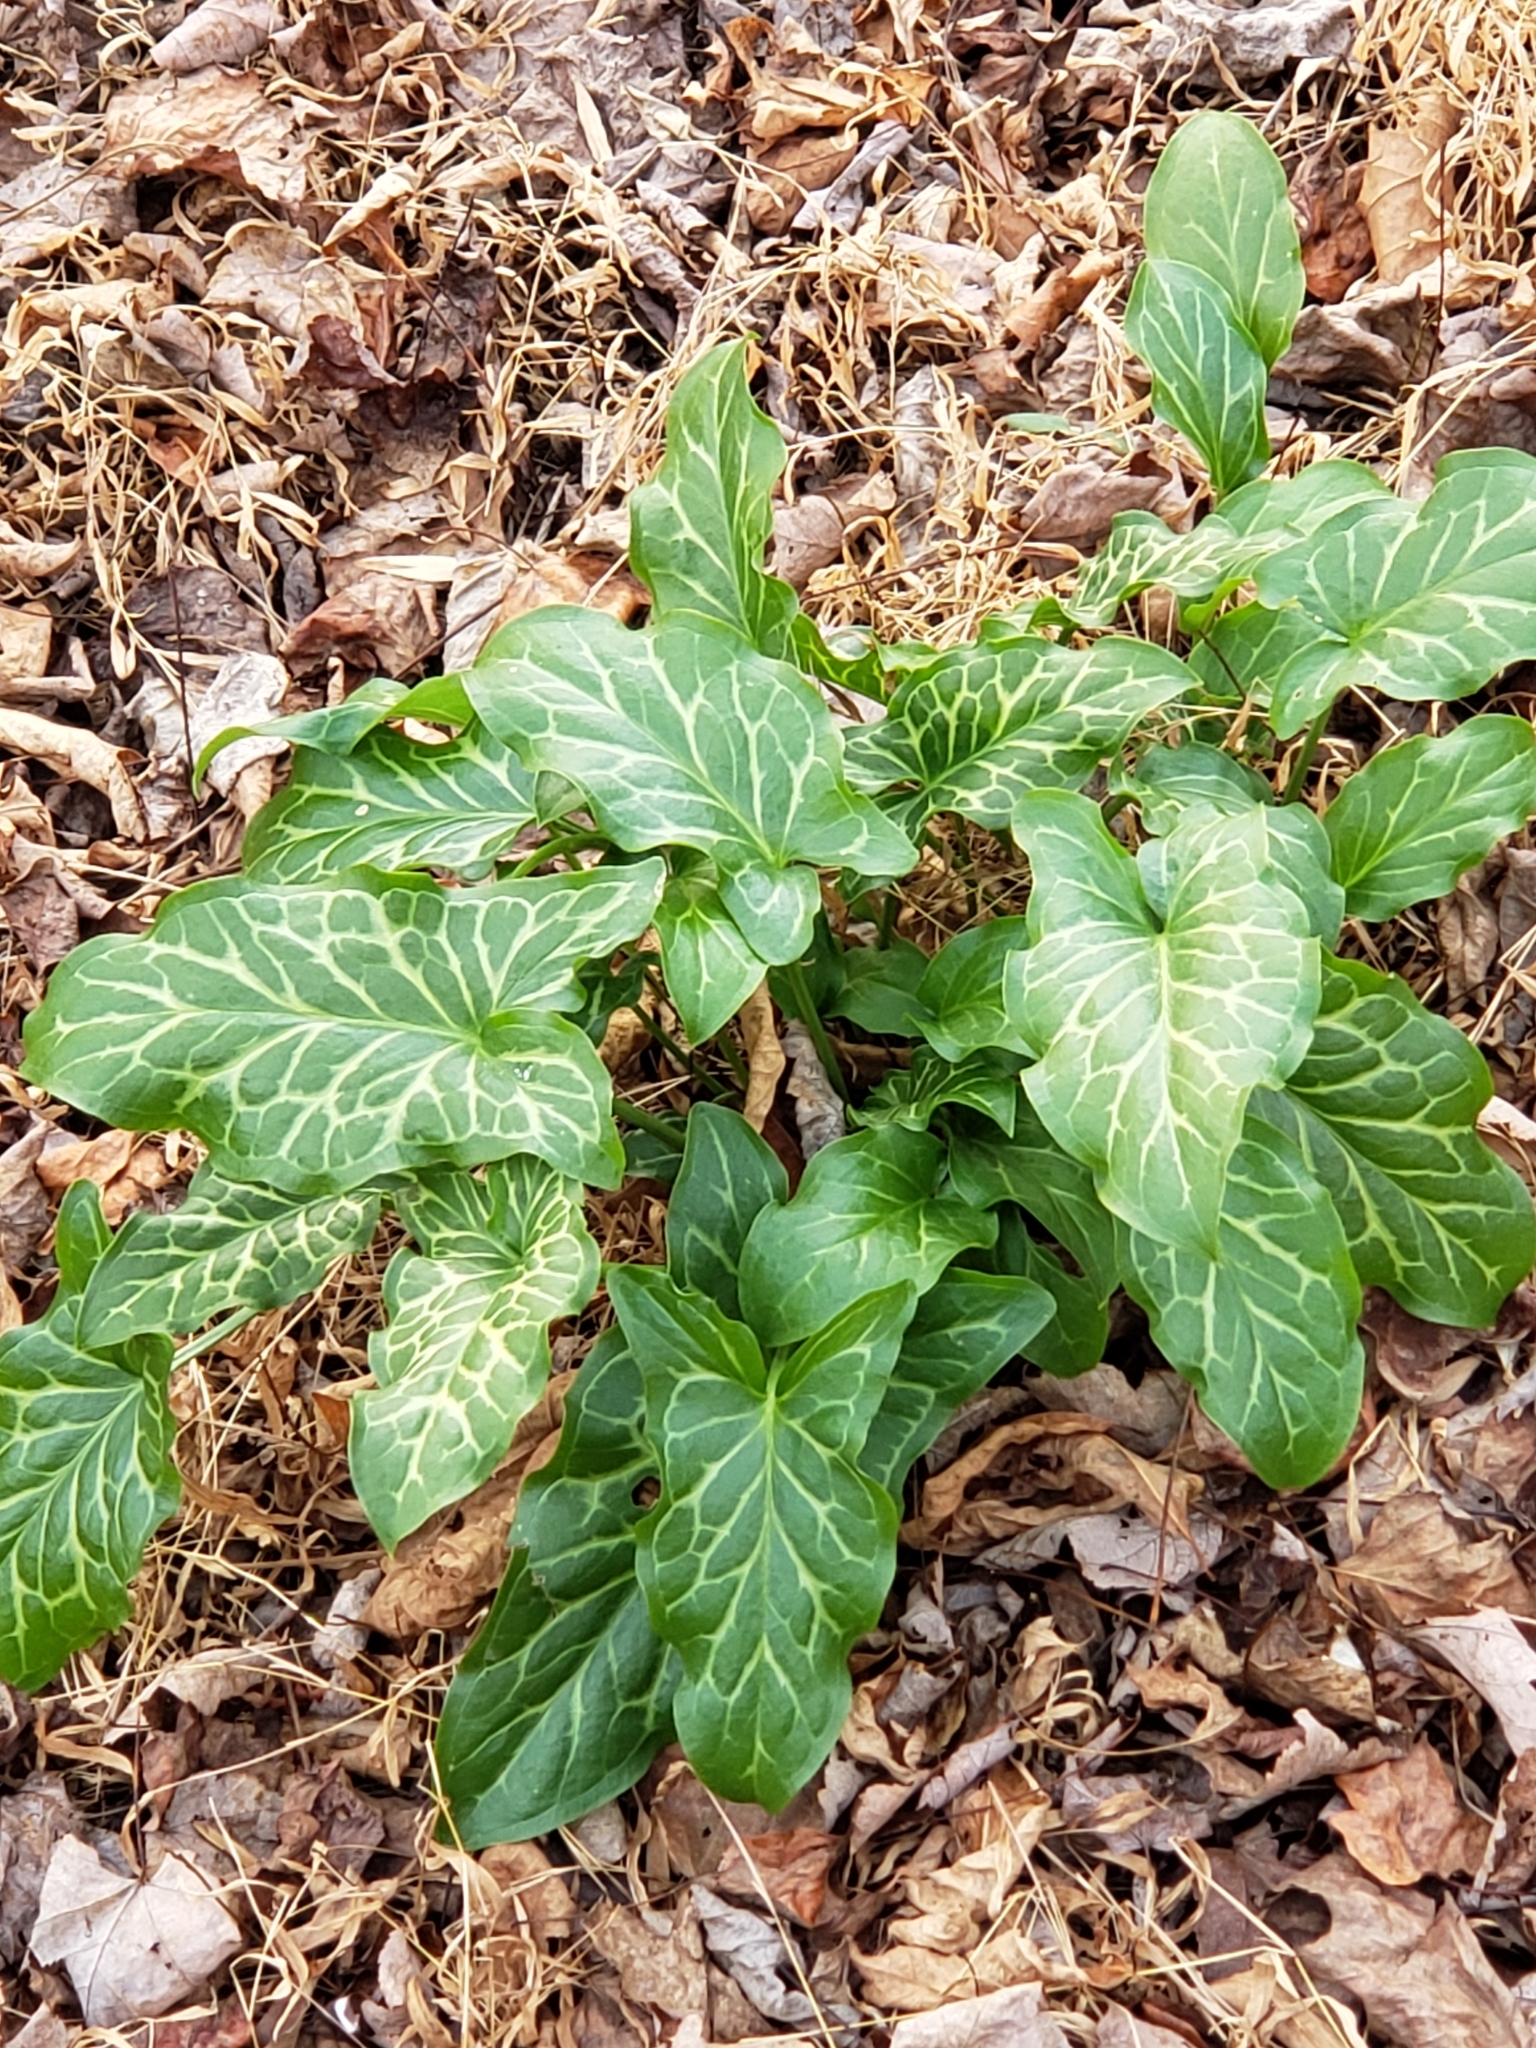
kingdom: Plantae
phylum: Tracheophyta
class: Liliopsida
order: Alismatales
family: Araceae
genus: Arum
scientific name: Arum italicum
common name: Italian lords-and-ladies
